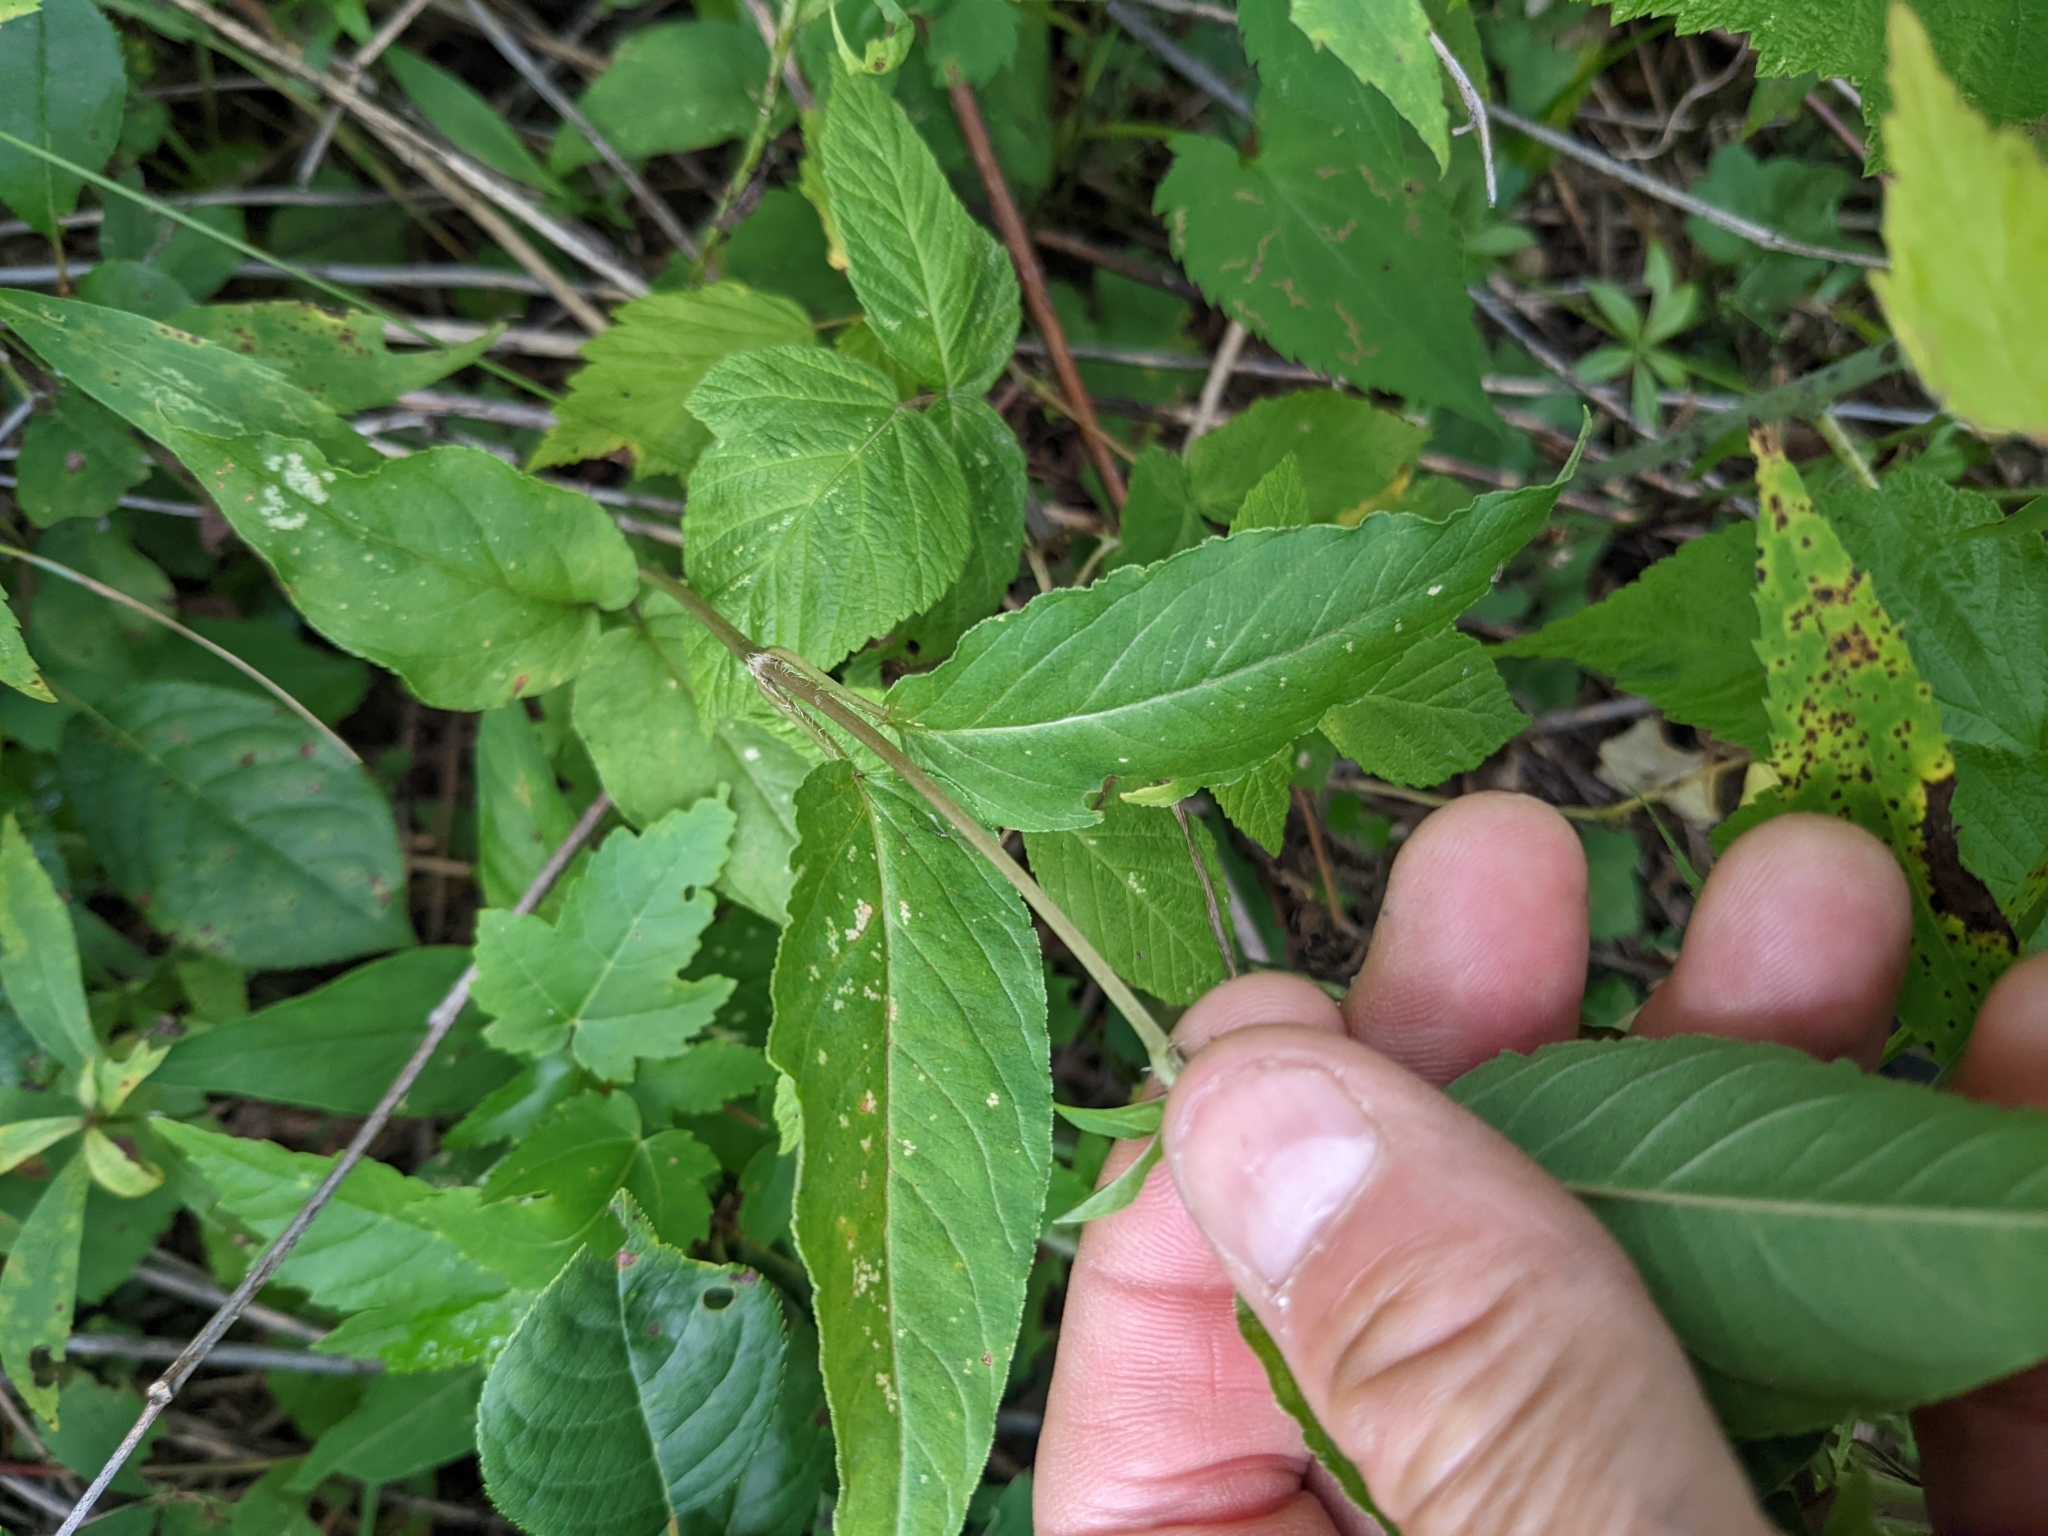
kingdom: Plantae
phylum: Tracheophyta
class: Magnoliopsida
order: Ericales
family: Primulaceae
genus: Lysimachia
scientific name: Lysimachia ciliata
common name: Fringed loosestrife
